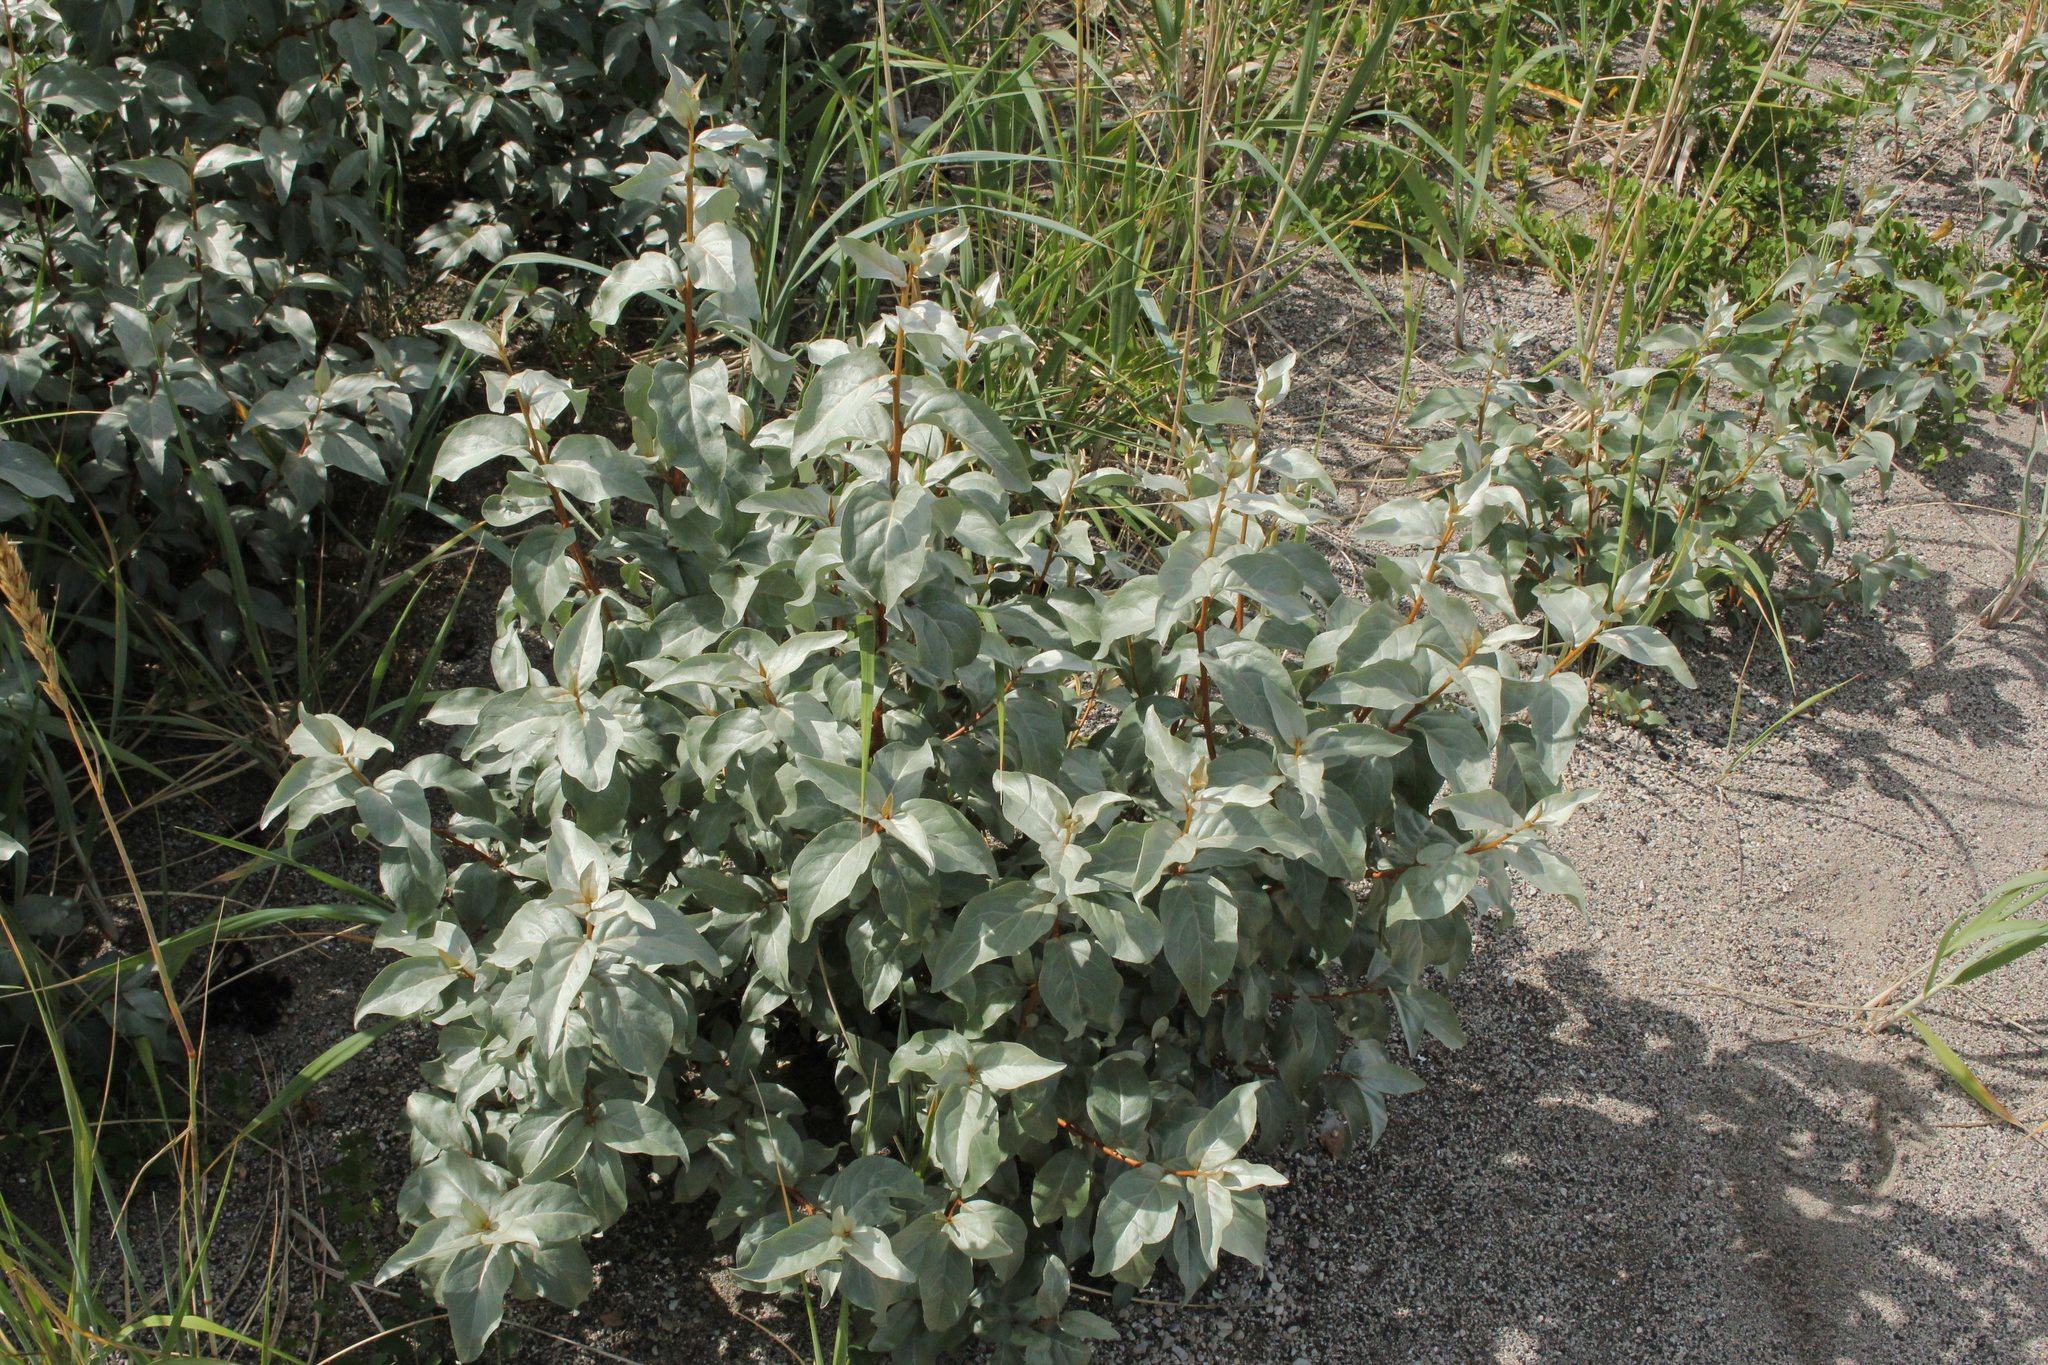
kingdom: Plantae
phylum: Tracheophyta
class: Magnoliopsida
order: Rosales
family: Elaeagnaceae
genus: Elaeagnus
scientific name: Elaeagnus commutata
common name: Silverberry
